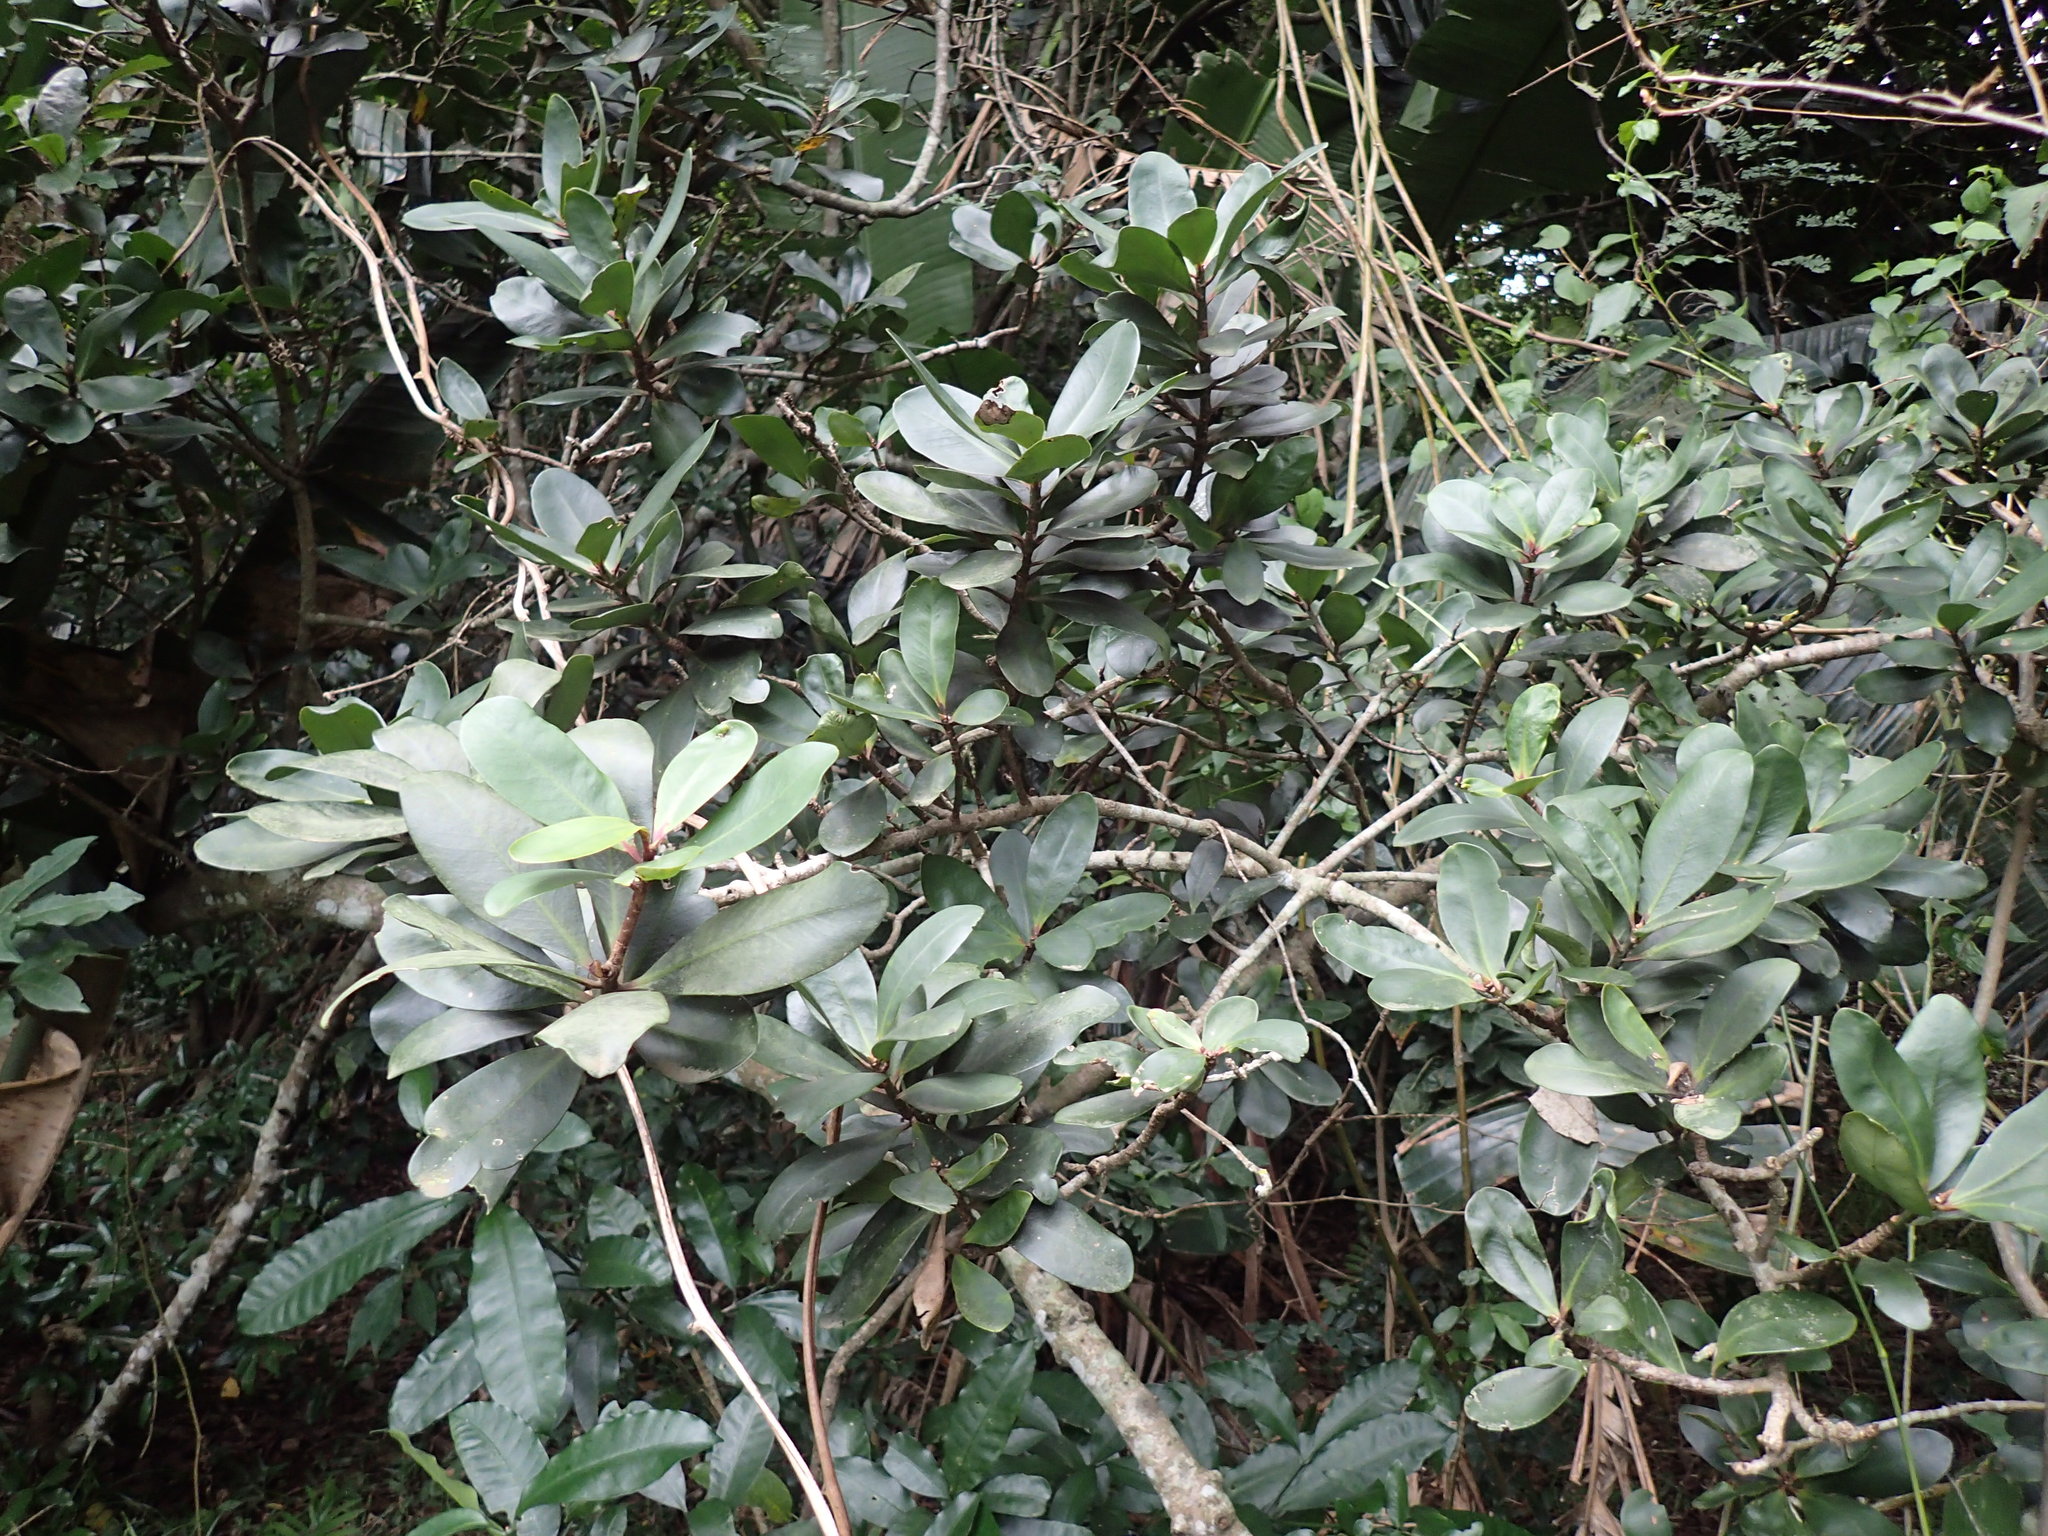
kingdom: Plantae
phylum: Tracheophyta
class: Magnoliopsida
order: Ericales
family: Primulaceae
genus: Myrsine
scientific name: Myrsine melanophloeos
